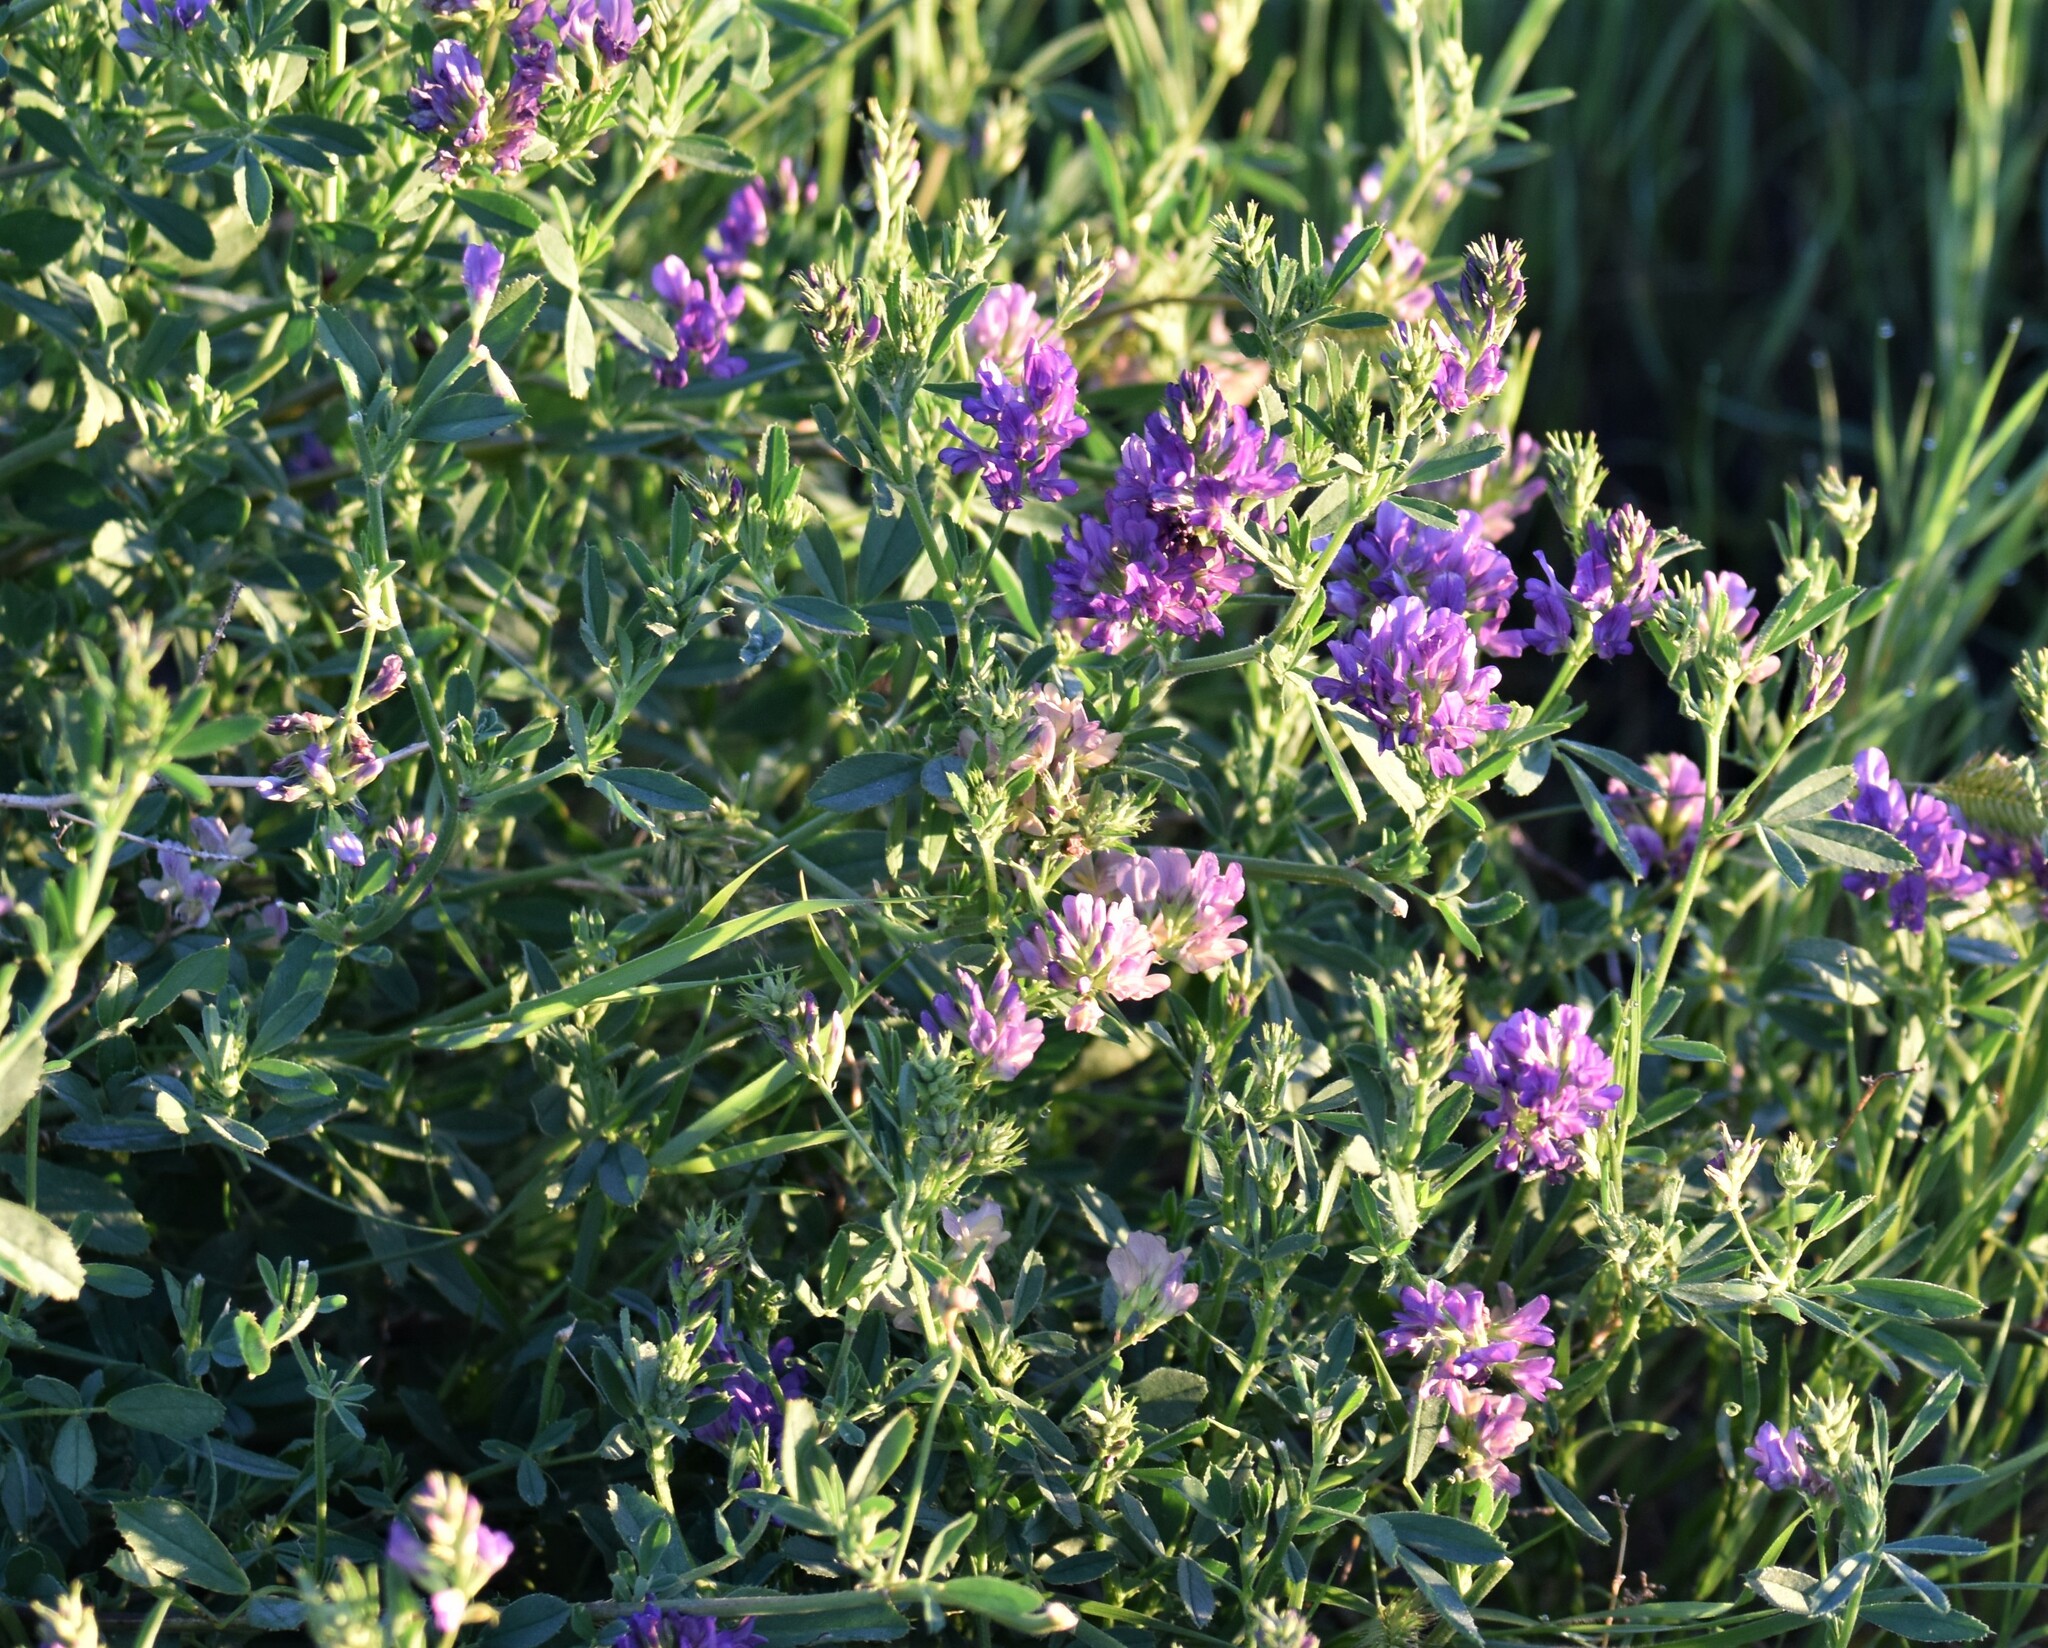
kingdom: Plantae
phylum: Tracheophyta
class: Magnoliopsida
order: Fabales
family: Fabaceae
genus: Medicago
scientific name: Medicago sativa
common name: Alfalfa
